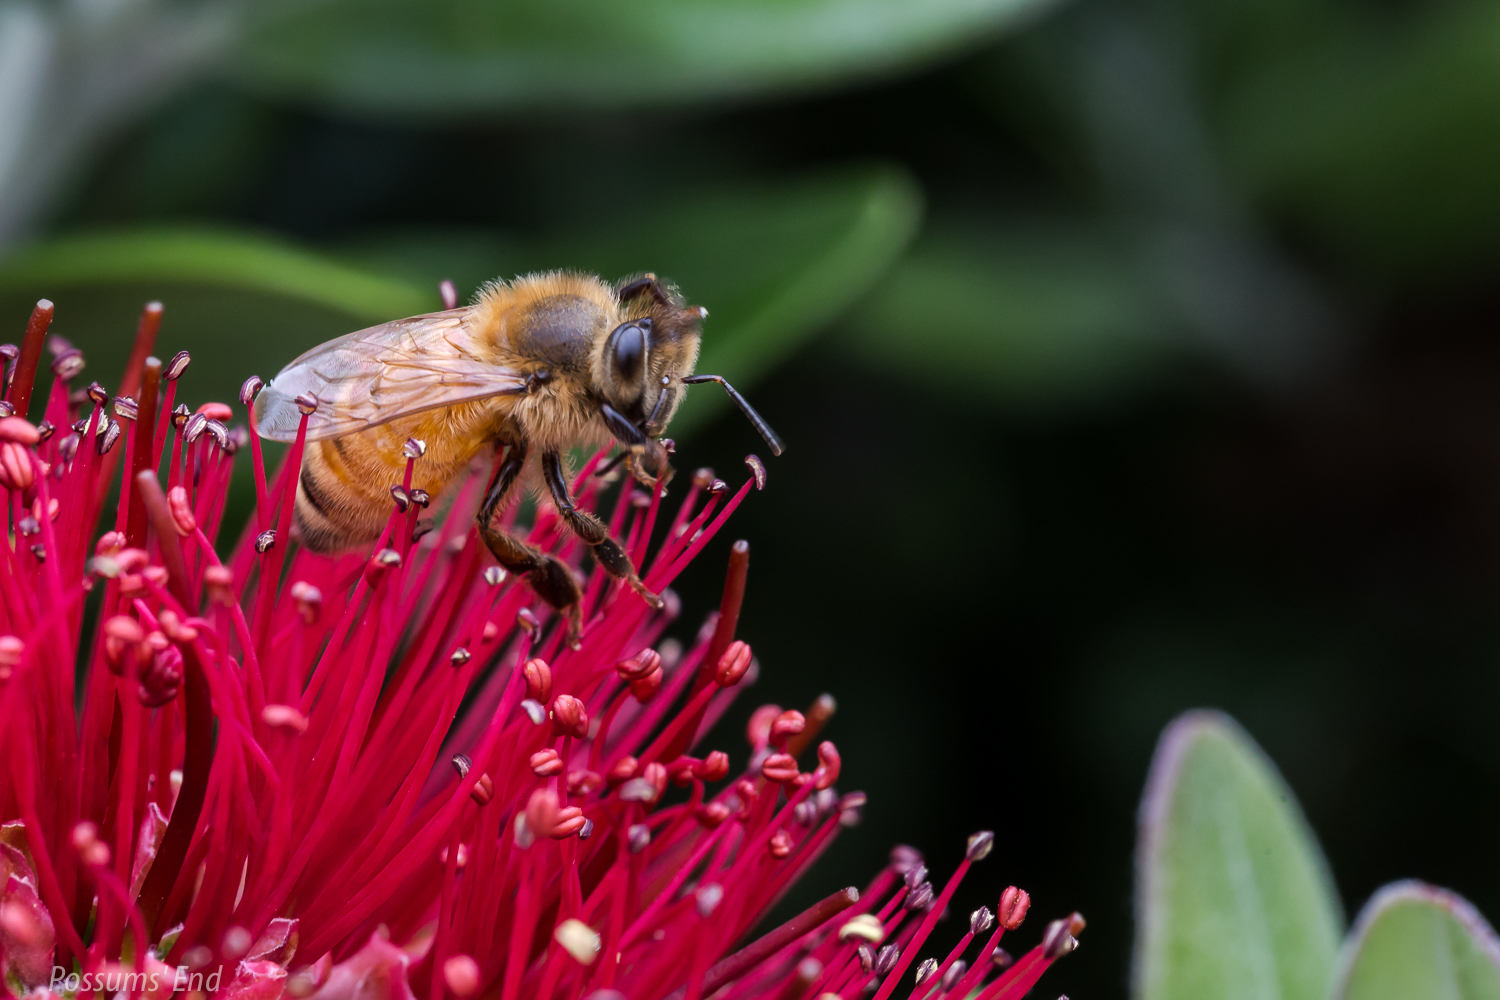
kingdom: Animalia
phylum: Arthropoda
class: Insecta
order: Hymenoptera
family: Apidae
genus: Apis
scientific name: Apis mellifera
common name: Honey bee
